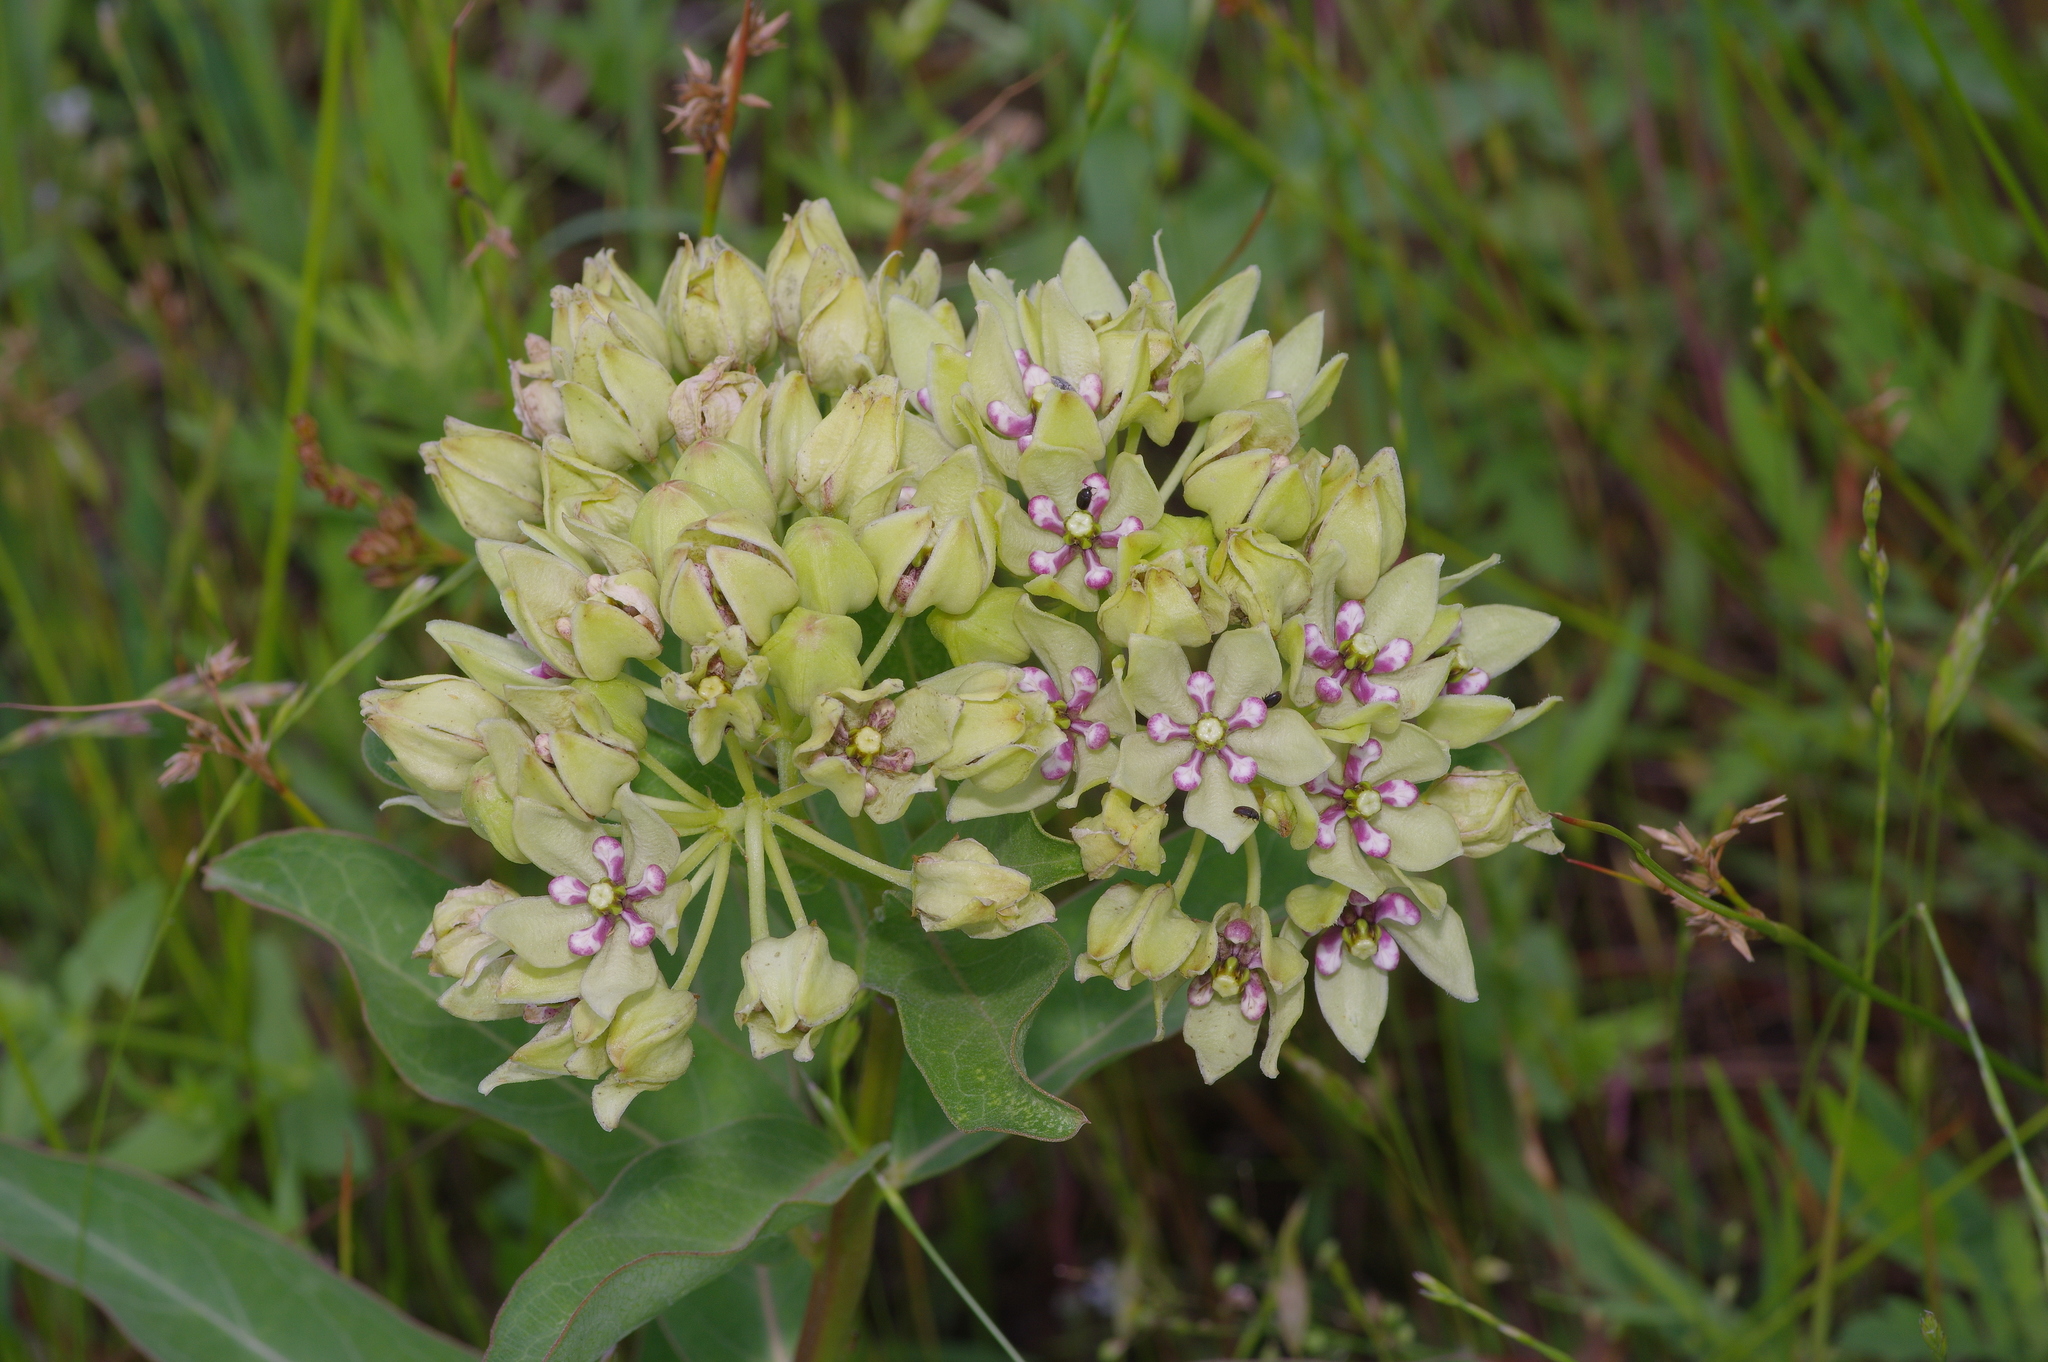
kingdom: Plantae
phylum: Tracheophyta
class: Magnoliopsida
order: Gentianales
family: Apocynaceae
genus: Asclepias
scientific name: Asclepias viridis
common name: Antelope-horns
